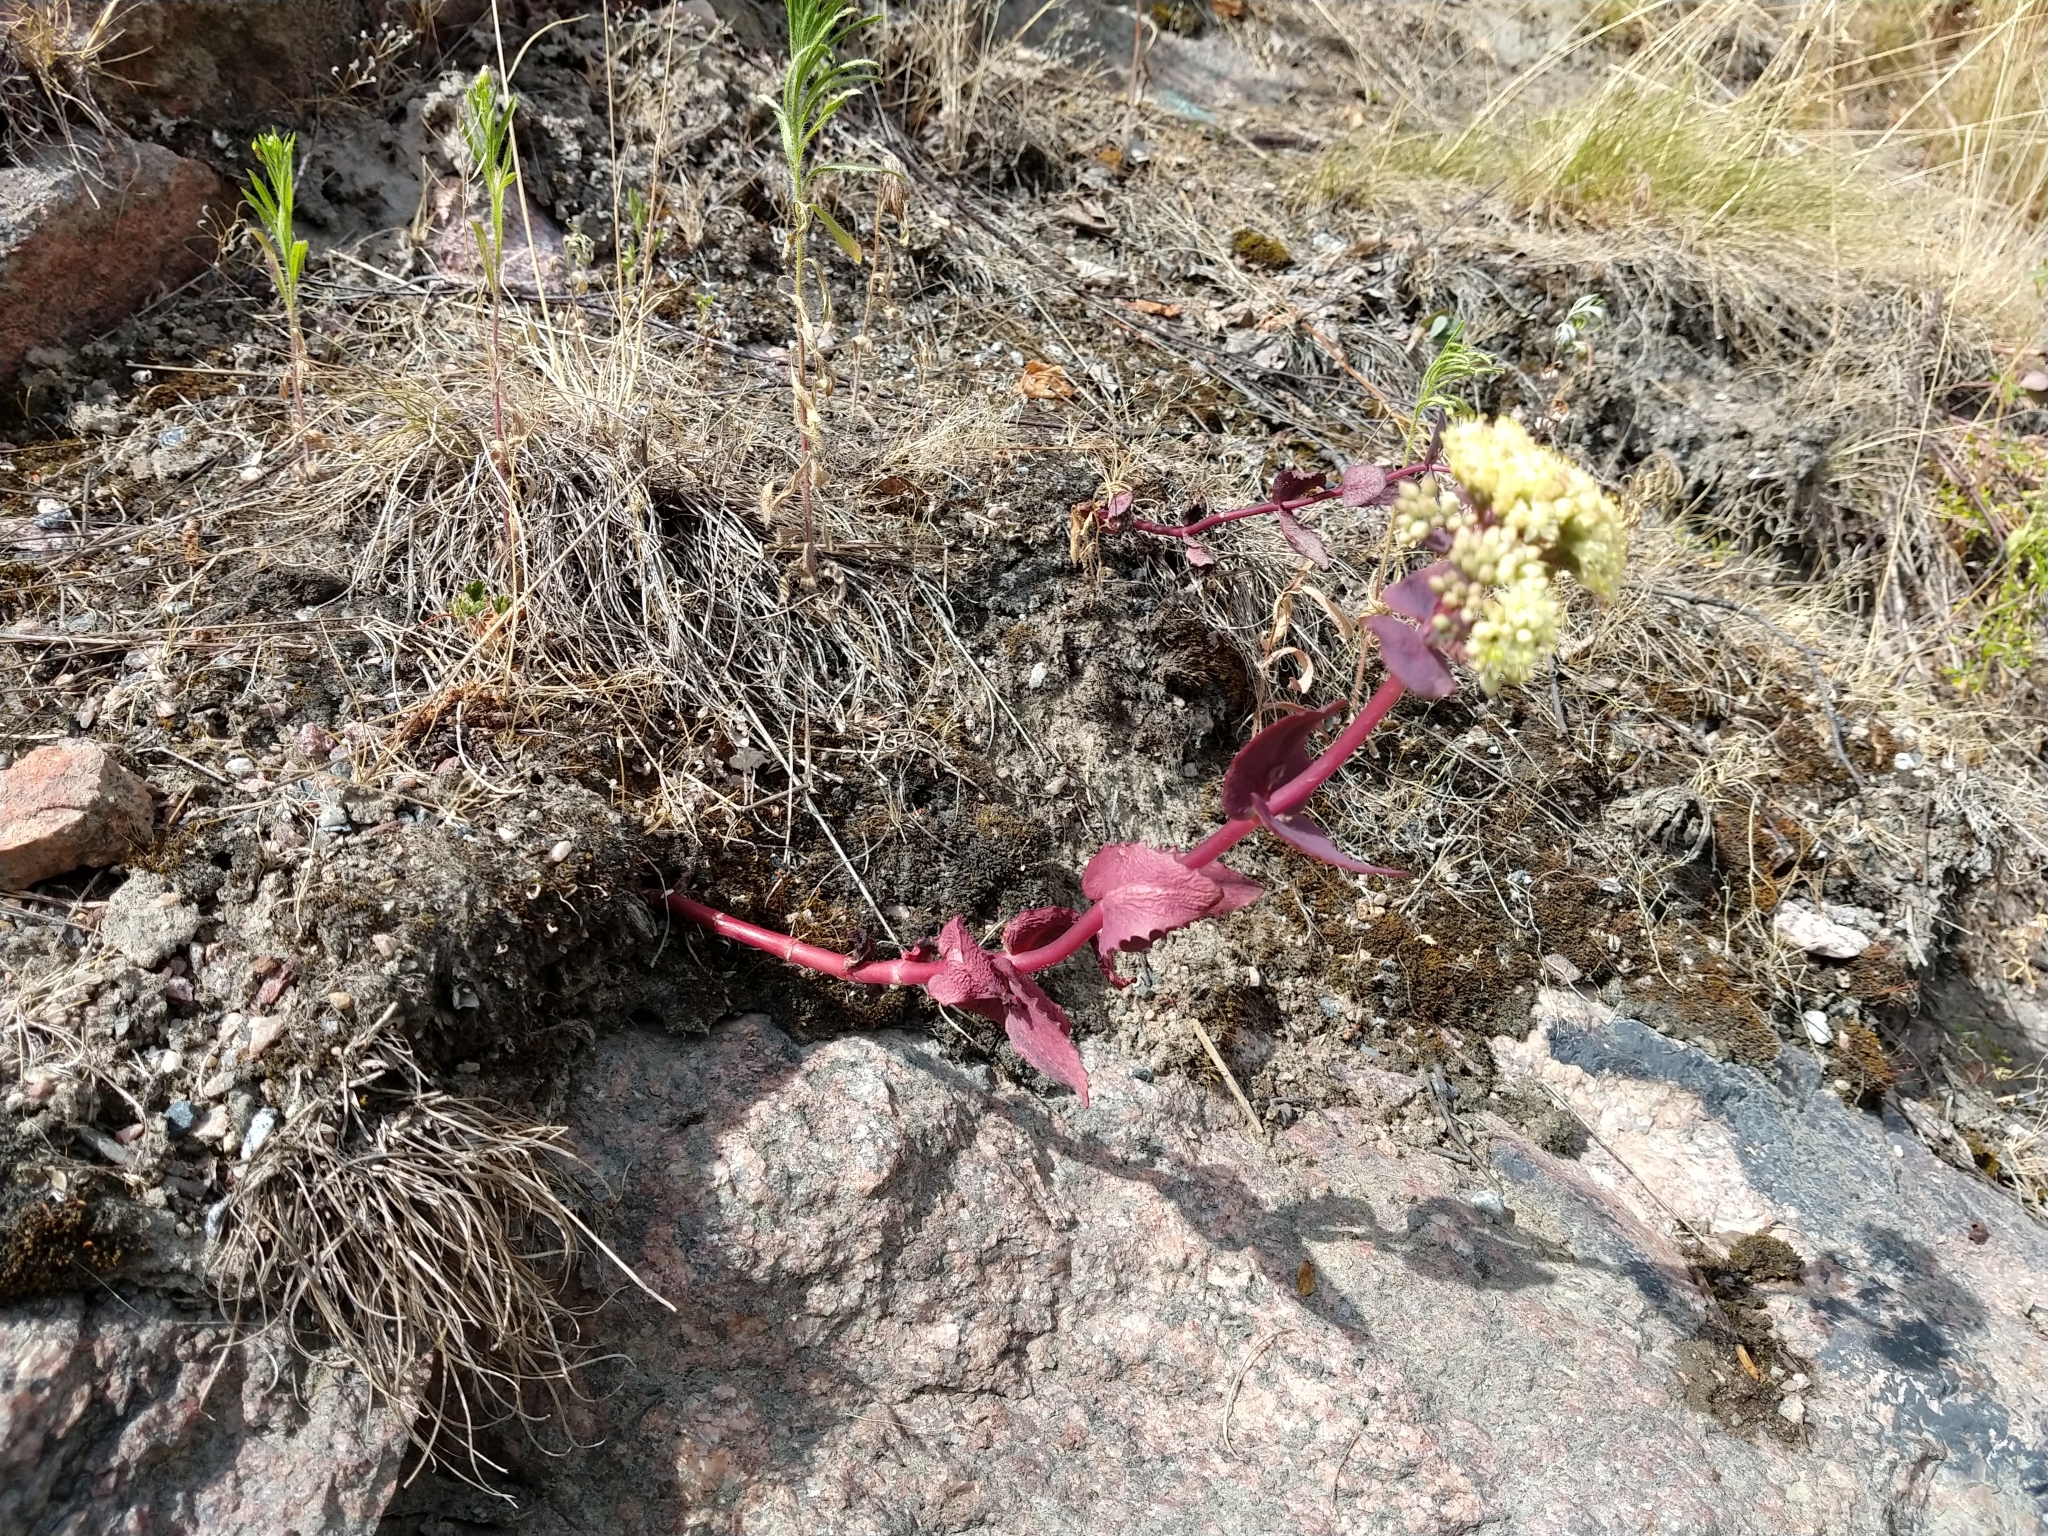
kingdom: Plantae
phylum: Tracheophyta
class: Magnoliopsida
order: Saxifragales
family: Crassulaceae
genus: Hylotelephium
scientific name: Hylotelephium maximum
